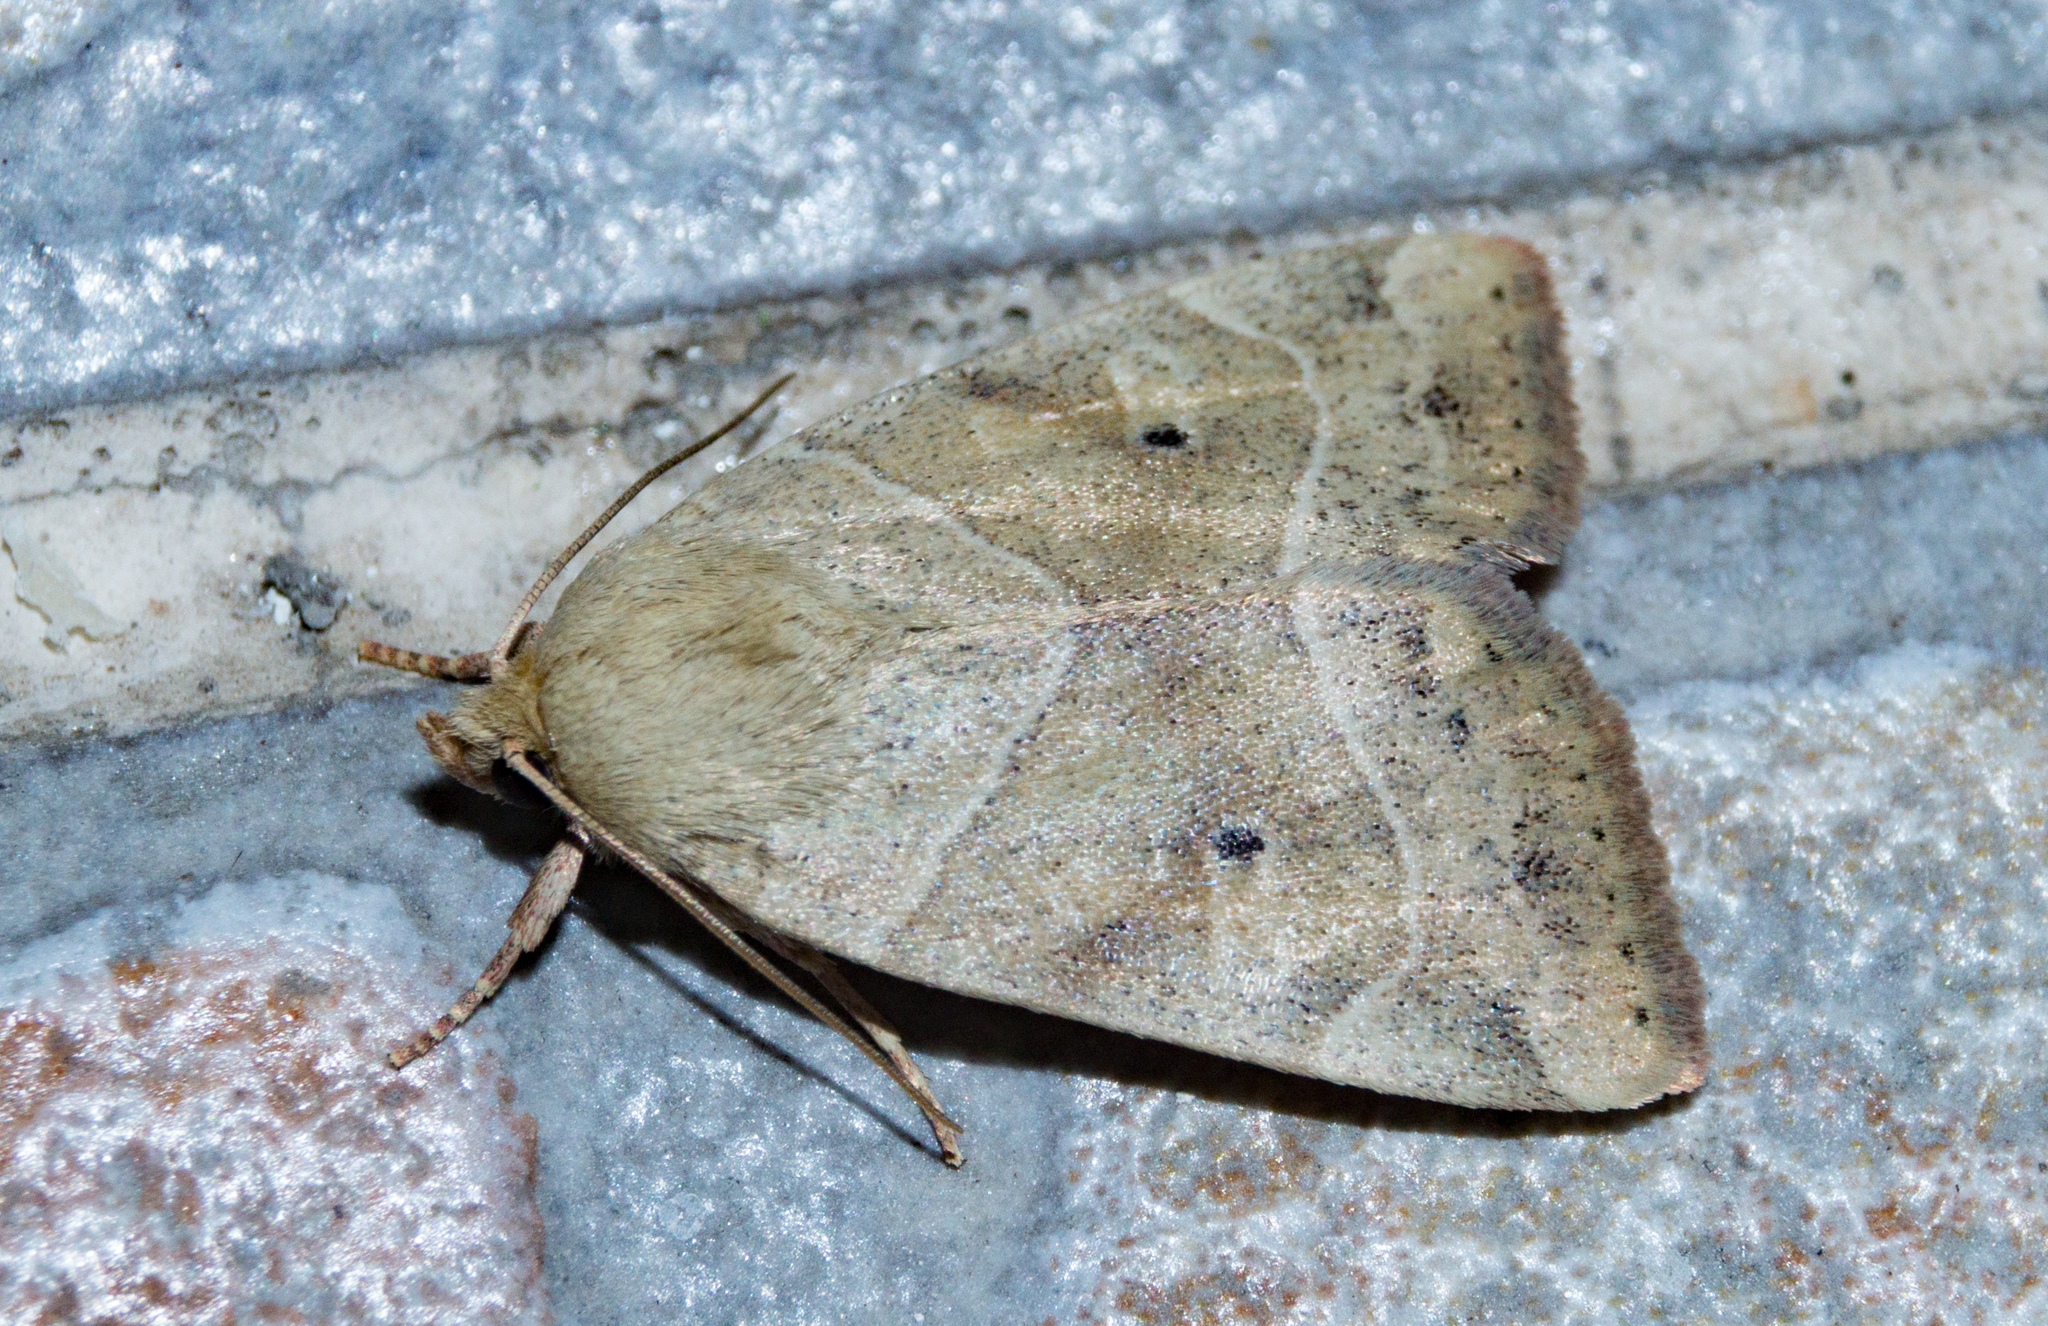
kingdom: Animalia
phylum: Arthropoda
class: Insecta
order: Lepidoptera
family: Noctuidae
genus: Cosmia
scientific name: Cosmia trapezina
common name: Dun-bar
